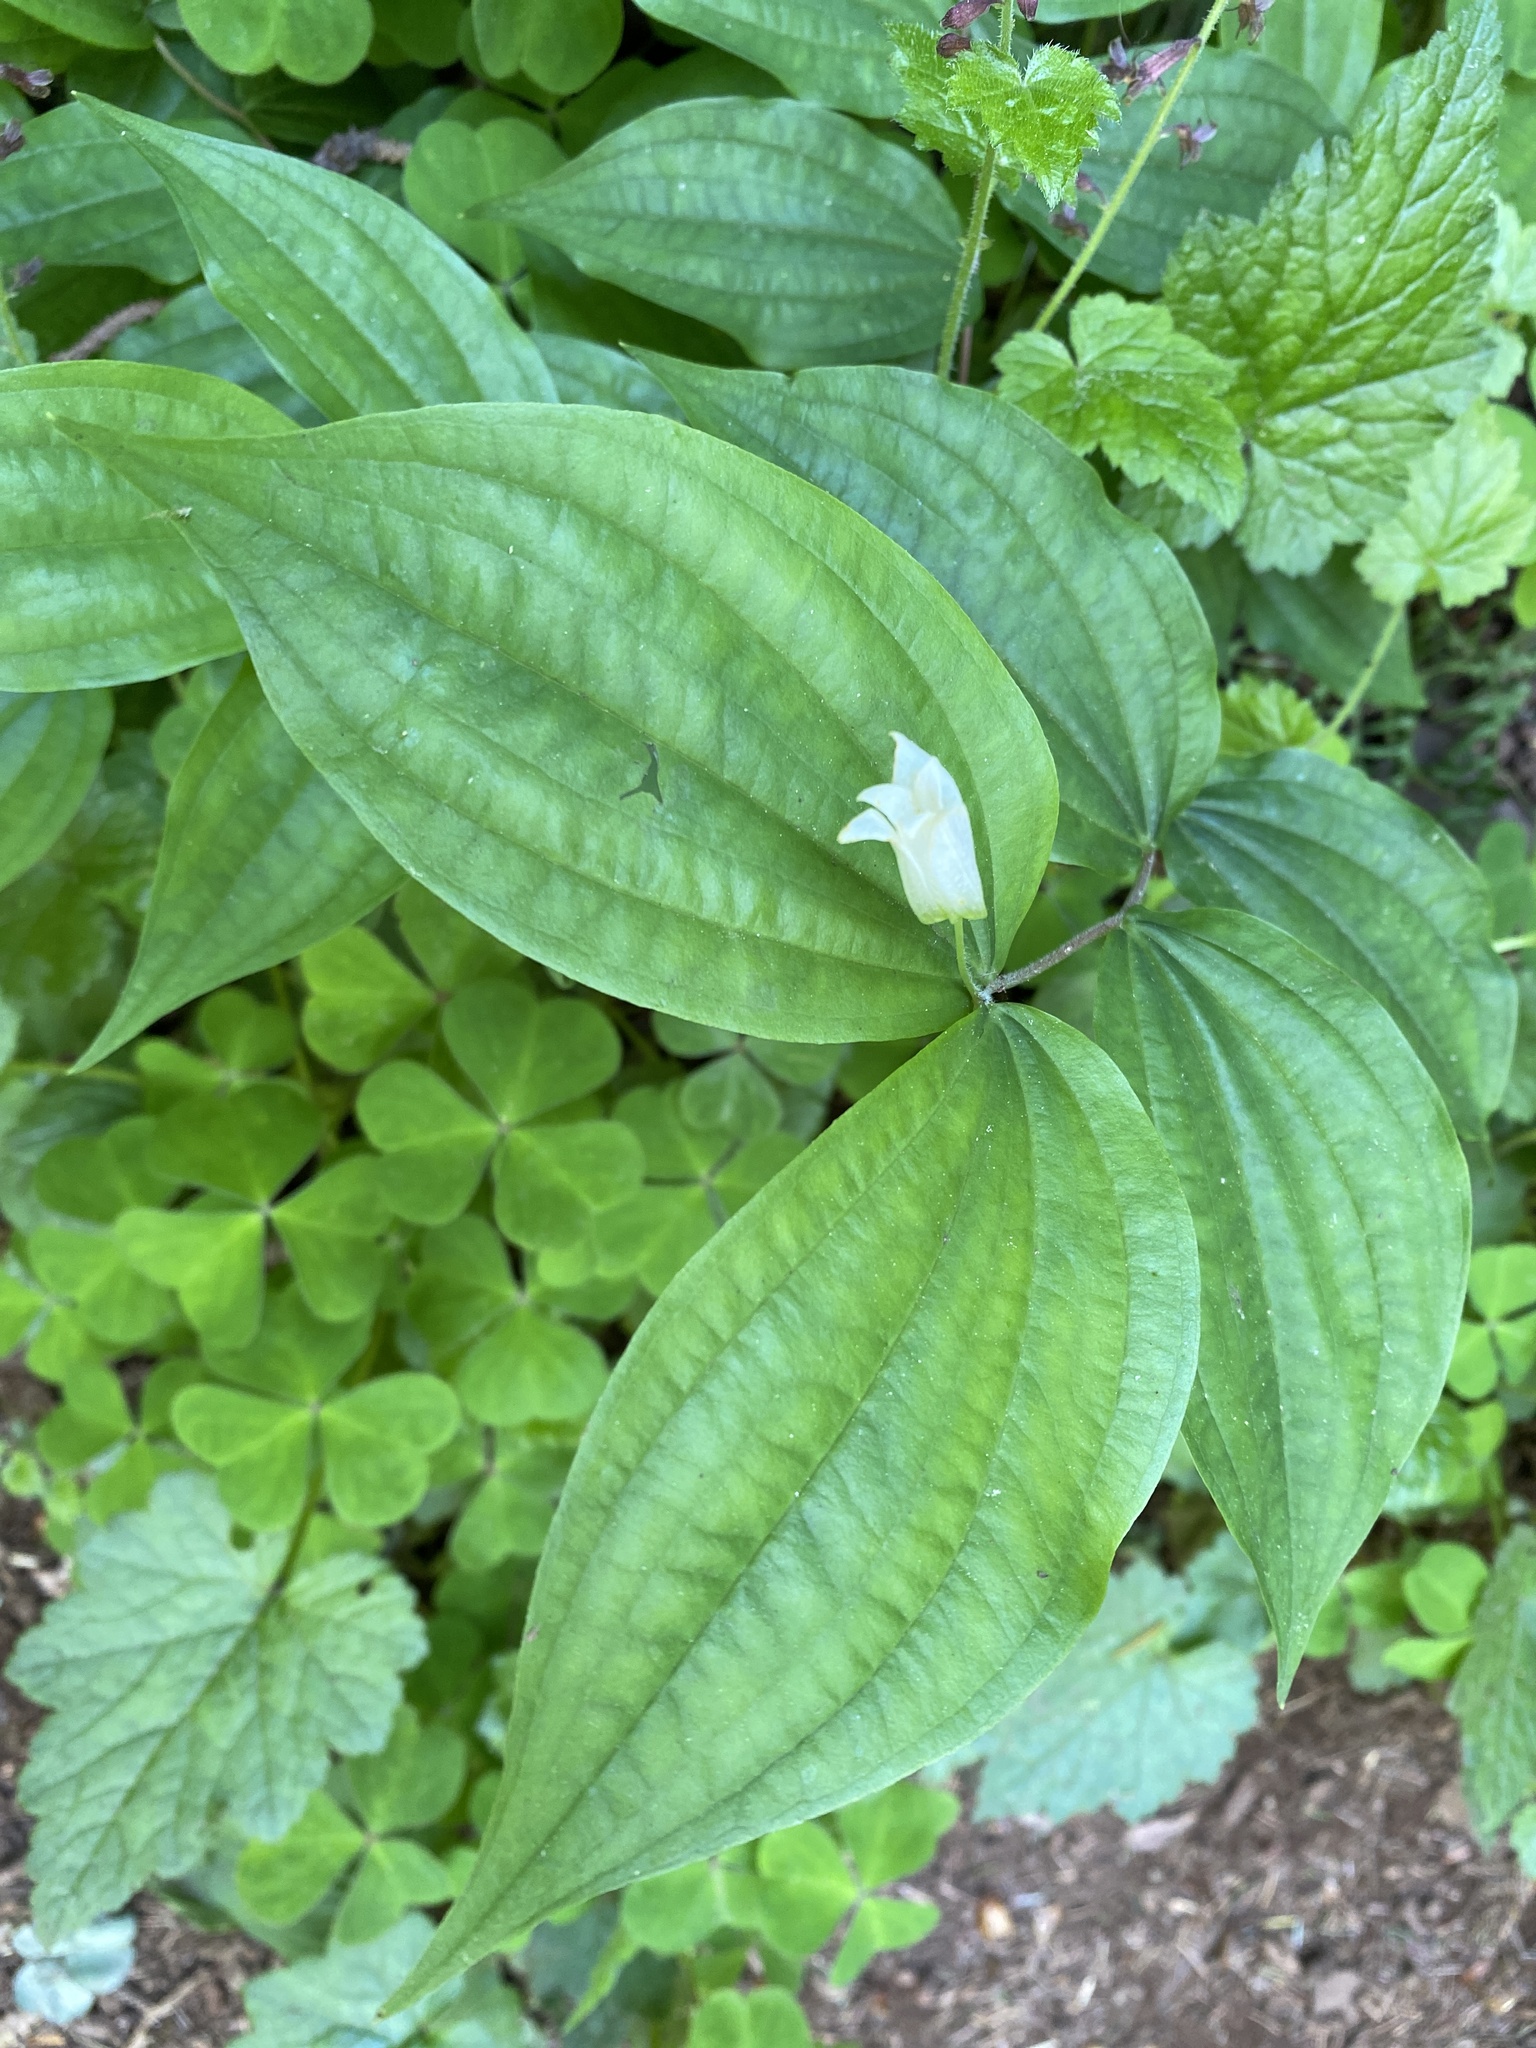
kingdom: Plantae
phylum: Tracheophyta
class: Liliopsida
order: Liliales
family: Liliaceae
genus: Prosartes
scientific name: Prosartes smithii
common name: Fairy-lantern
